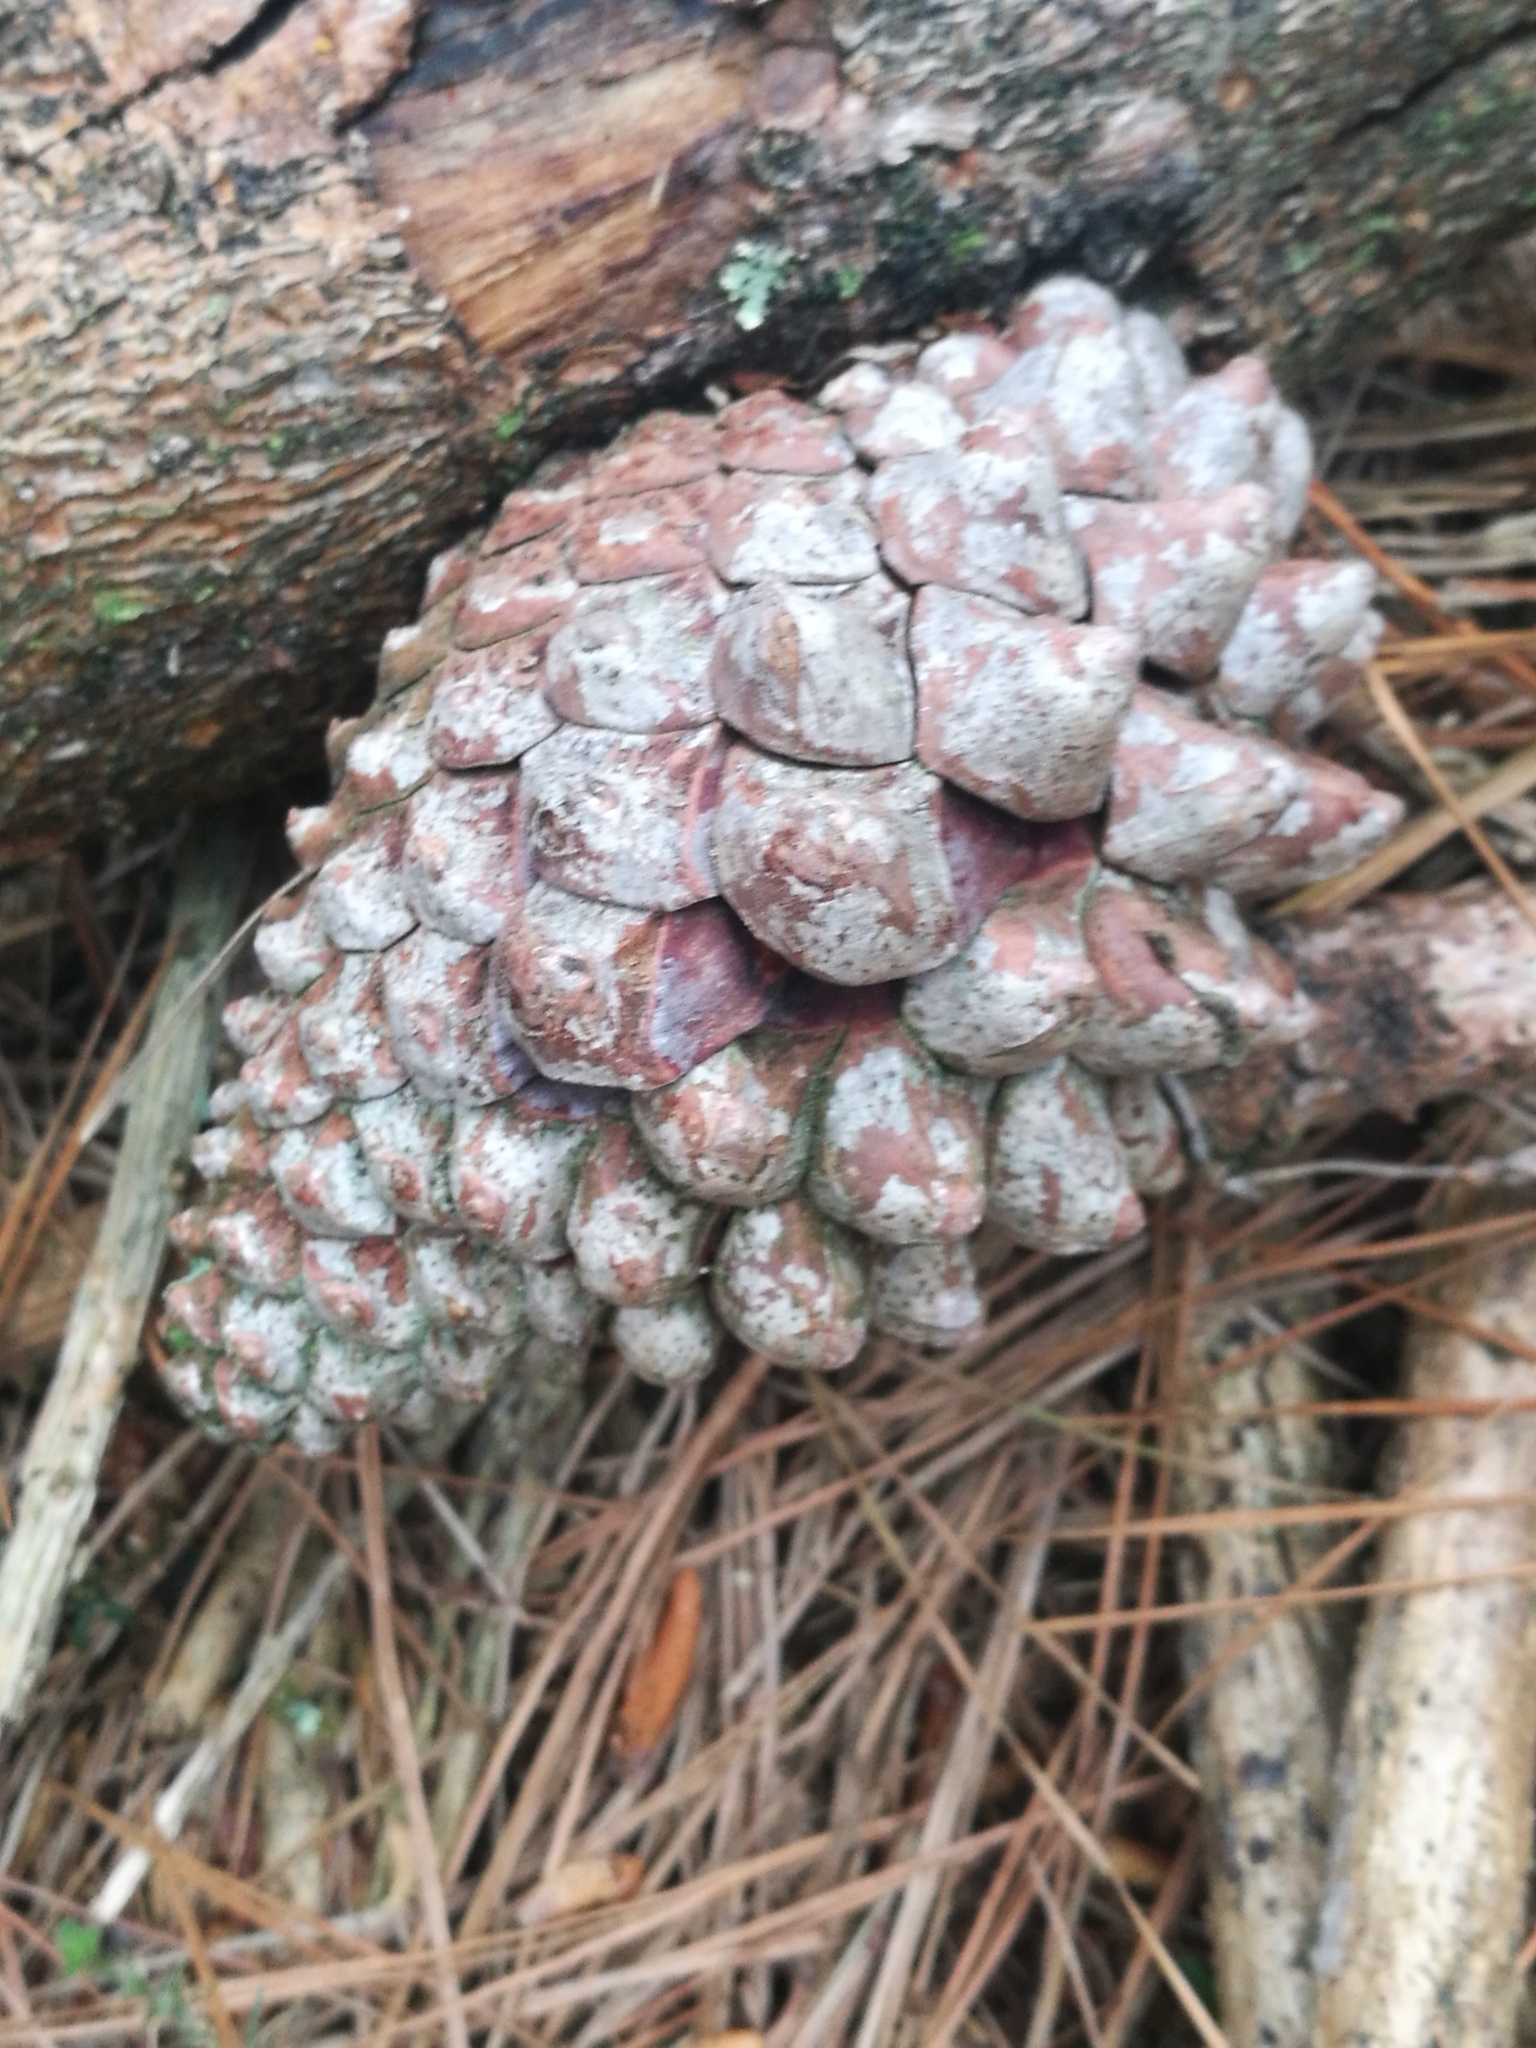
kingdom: Plantae
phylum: Tracheophyta
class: Pinopsida
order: Pinales
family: Pinaceae
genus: Pinus
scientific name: Pinus radiata
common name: Monterey pine
